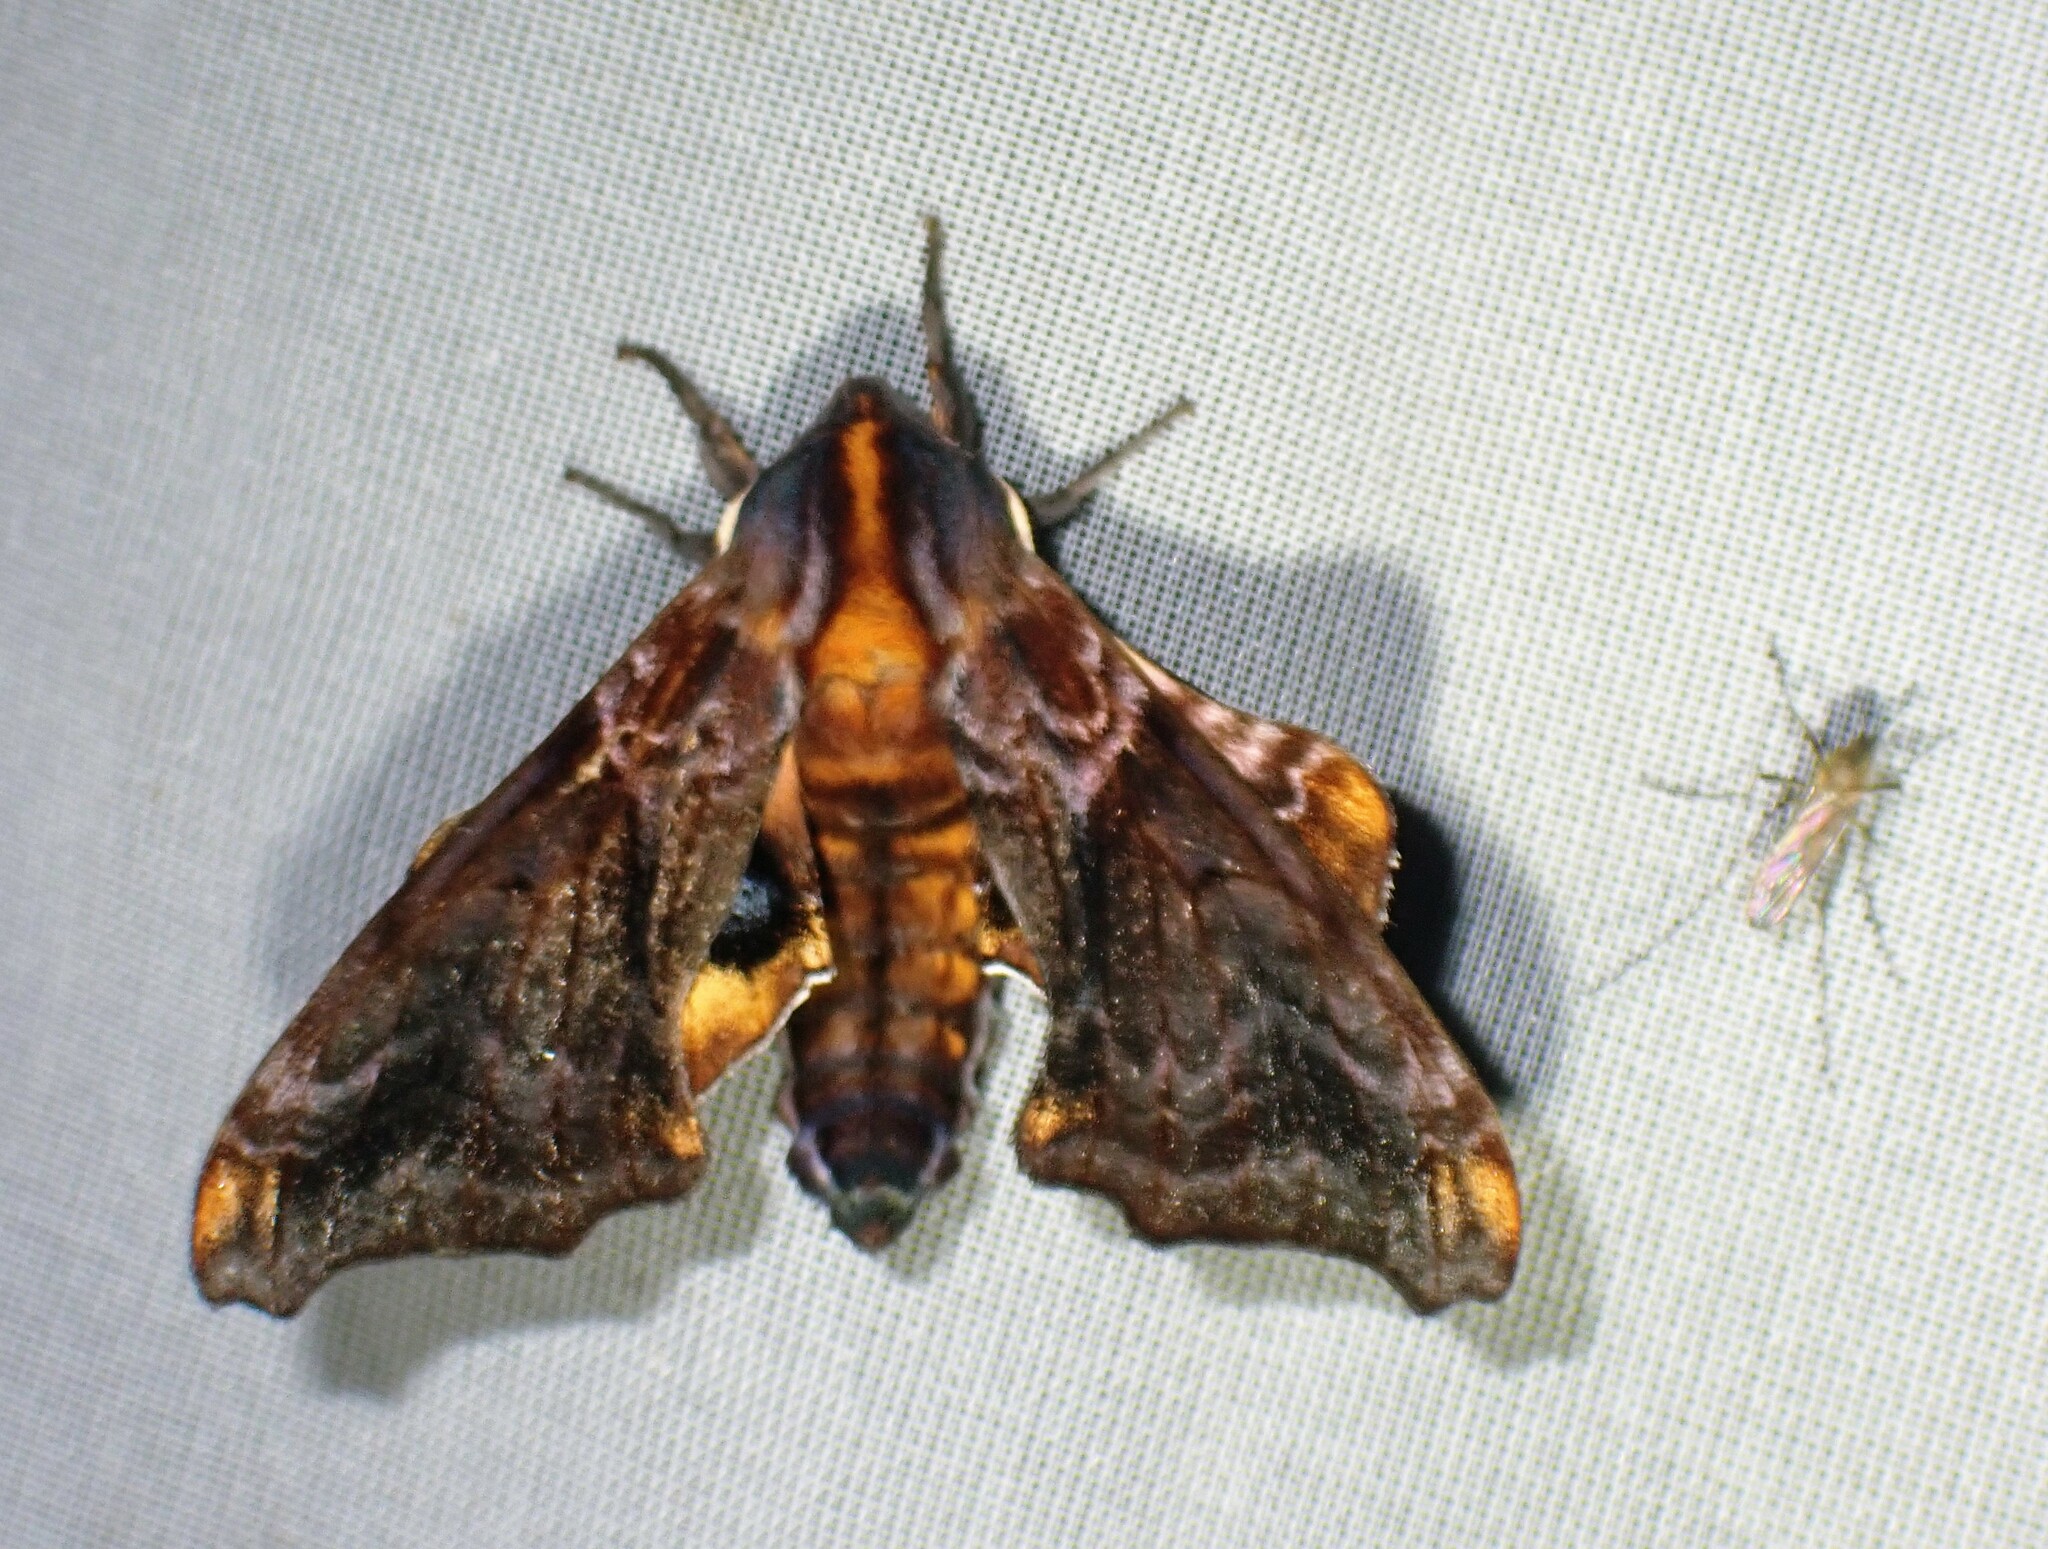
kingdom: Animalia
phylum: Arthropoda
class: Insecta
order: Lepidoptera
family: Sphingidae
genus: Paonias
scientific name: Paonias myops
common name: Small-eyed sphinx
